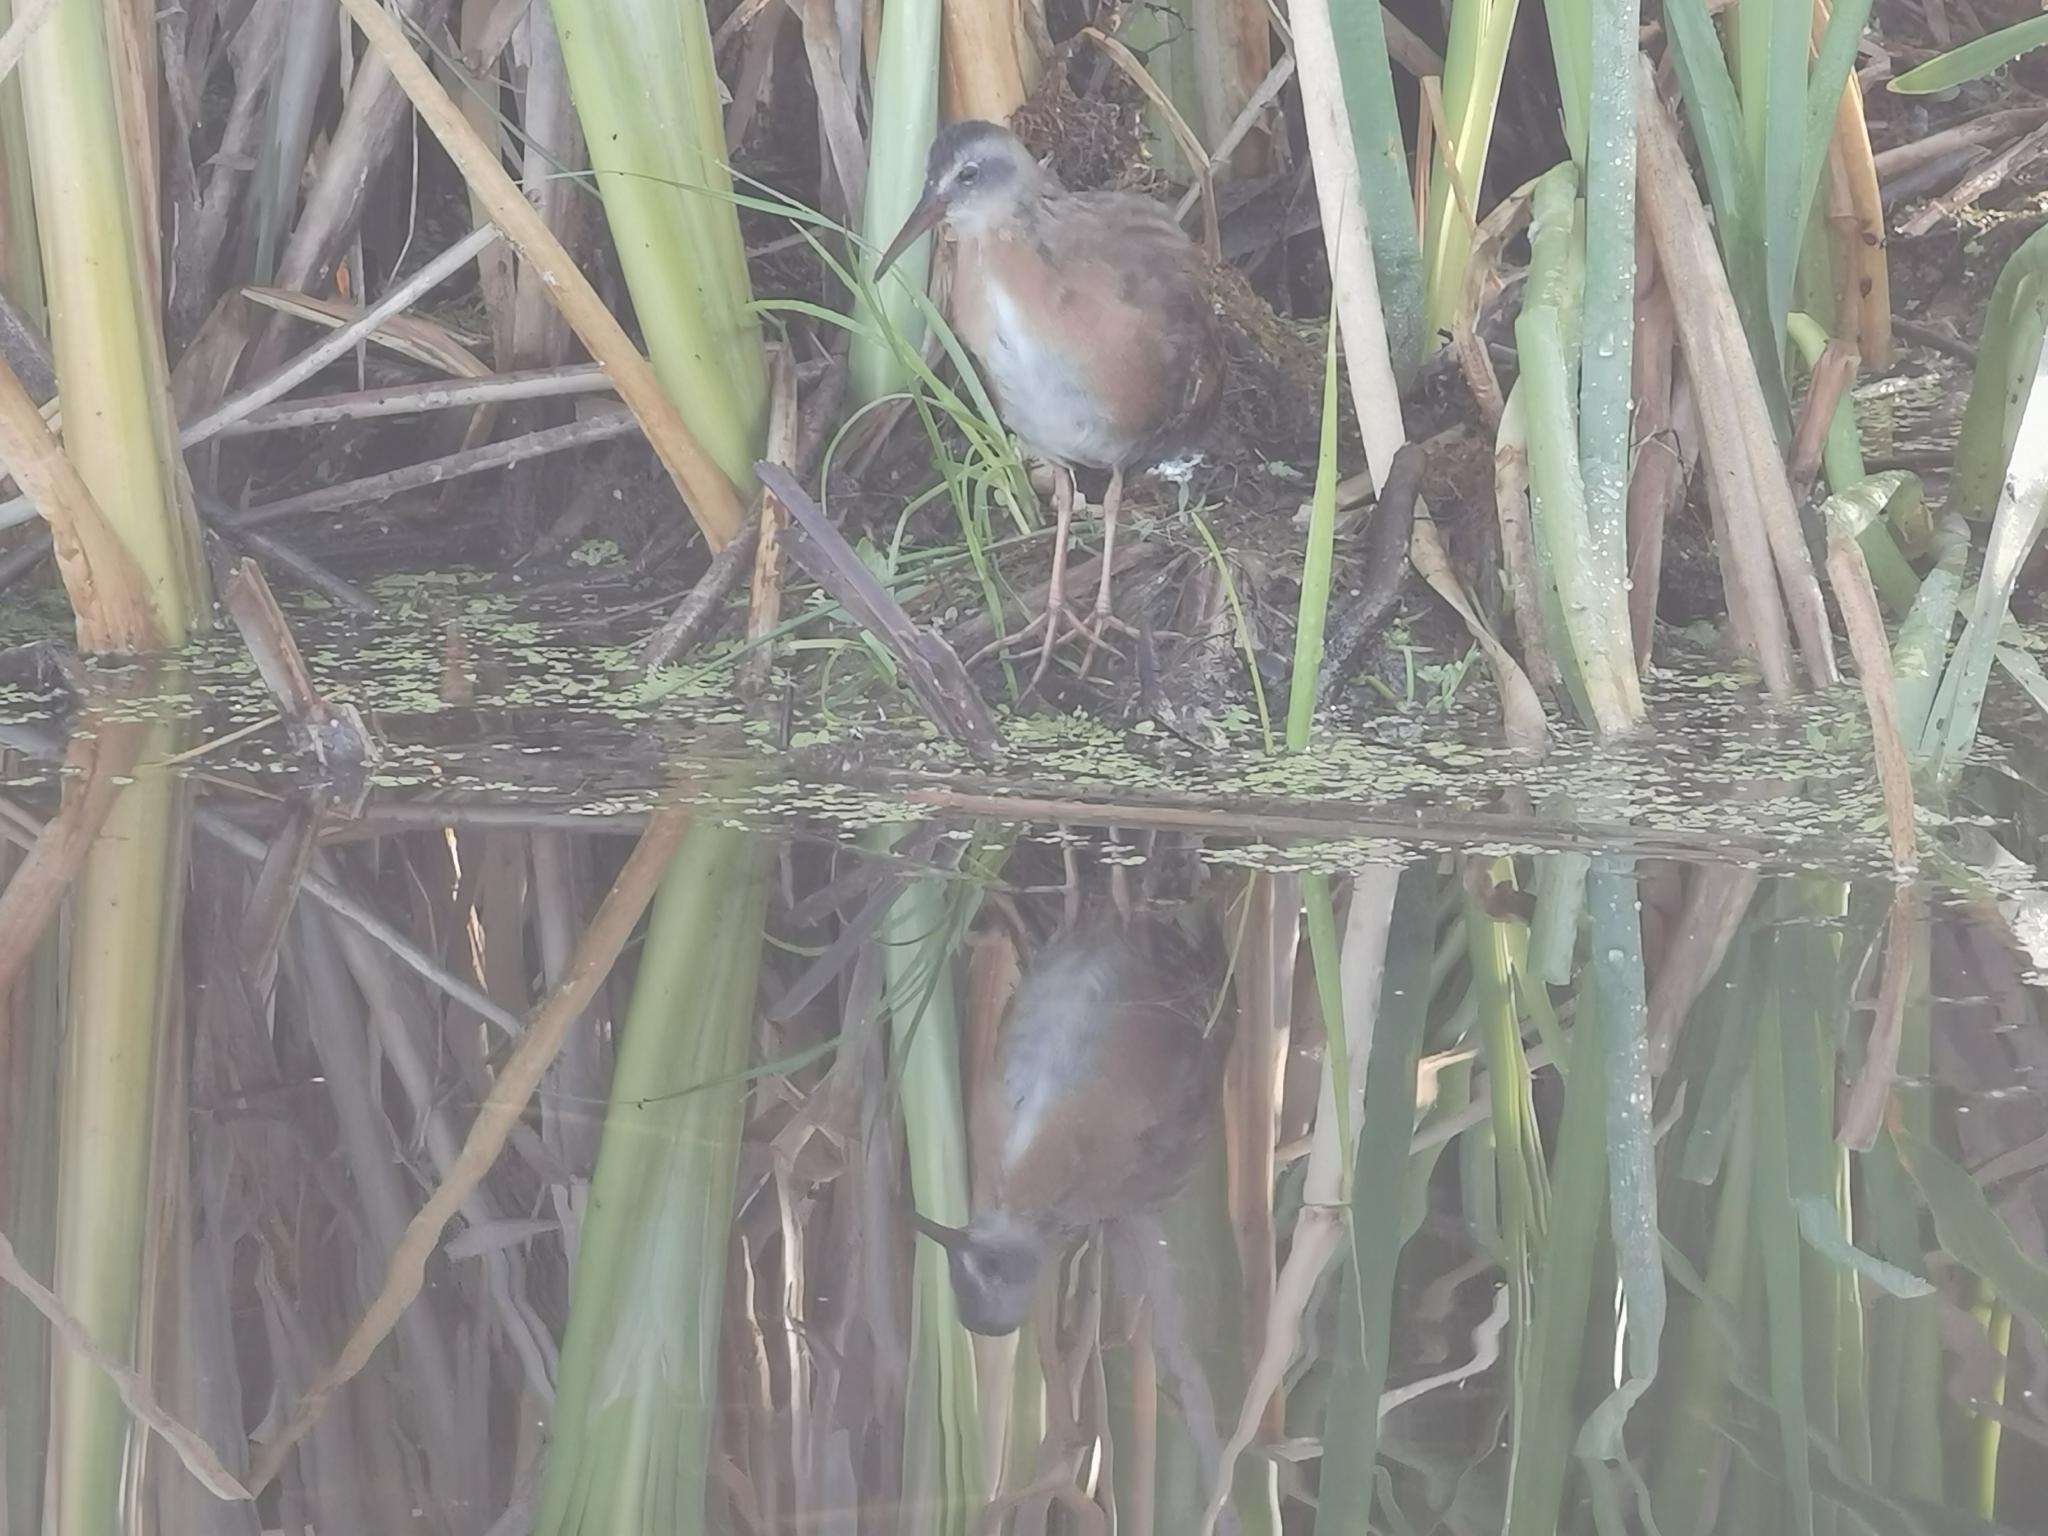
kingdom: Animalia
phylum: Chordata
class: Aves
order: Gruiformes
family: Rallidae
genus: Rallus
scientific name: Rallus limicola
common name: Virginia rail
